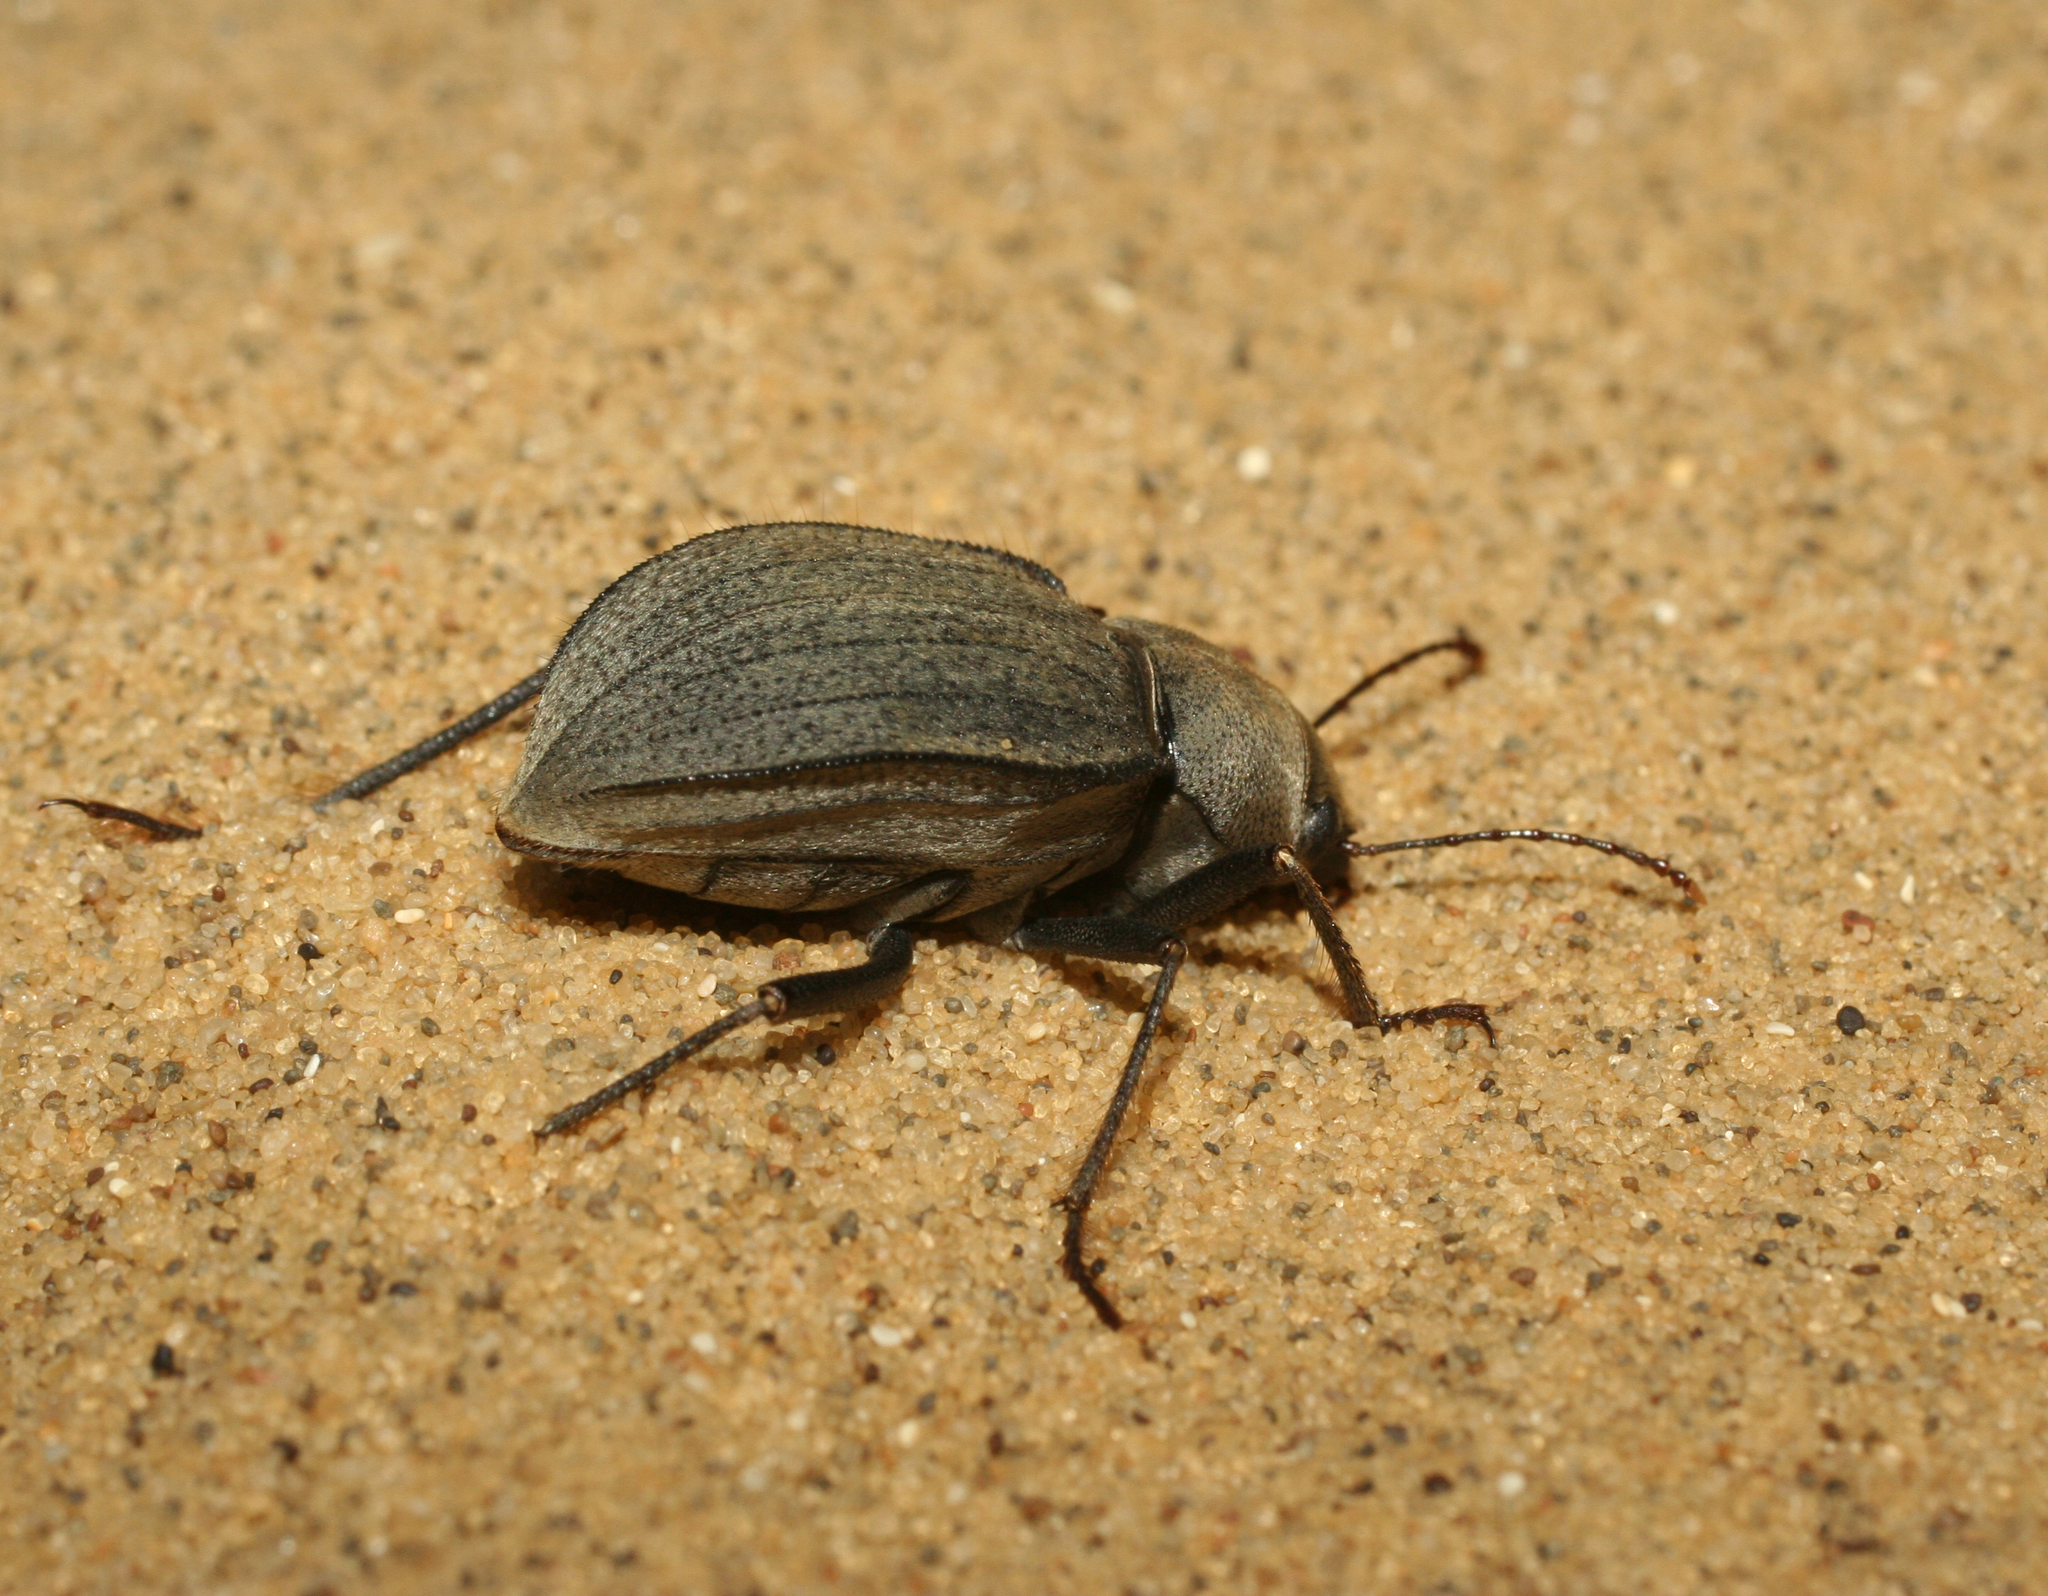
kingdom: Animalia
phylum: Arthropoda
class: Insecta
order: Coleoptera
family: Tenebrionidae
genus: Platyesia
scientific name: Platyesia
